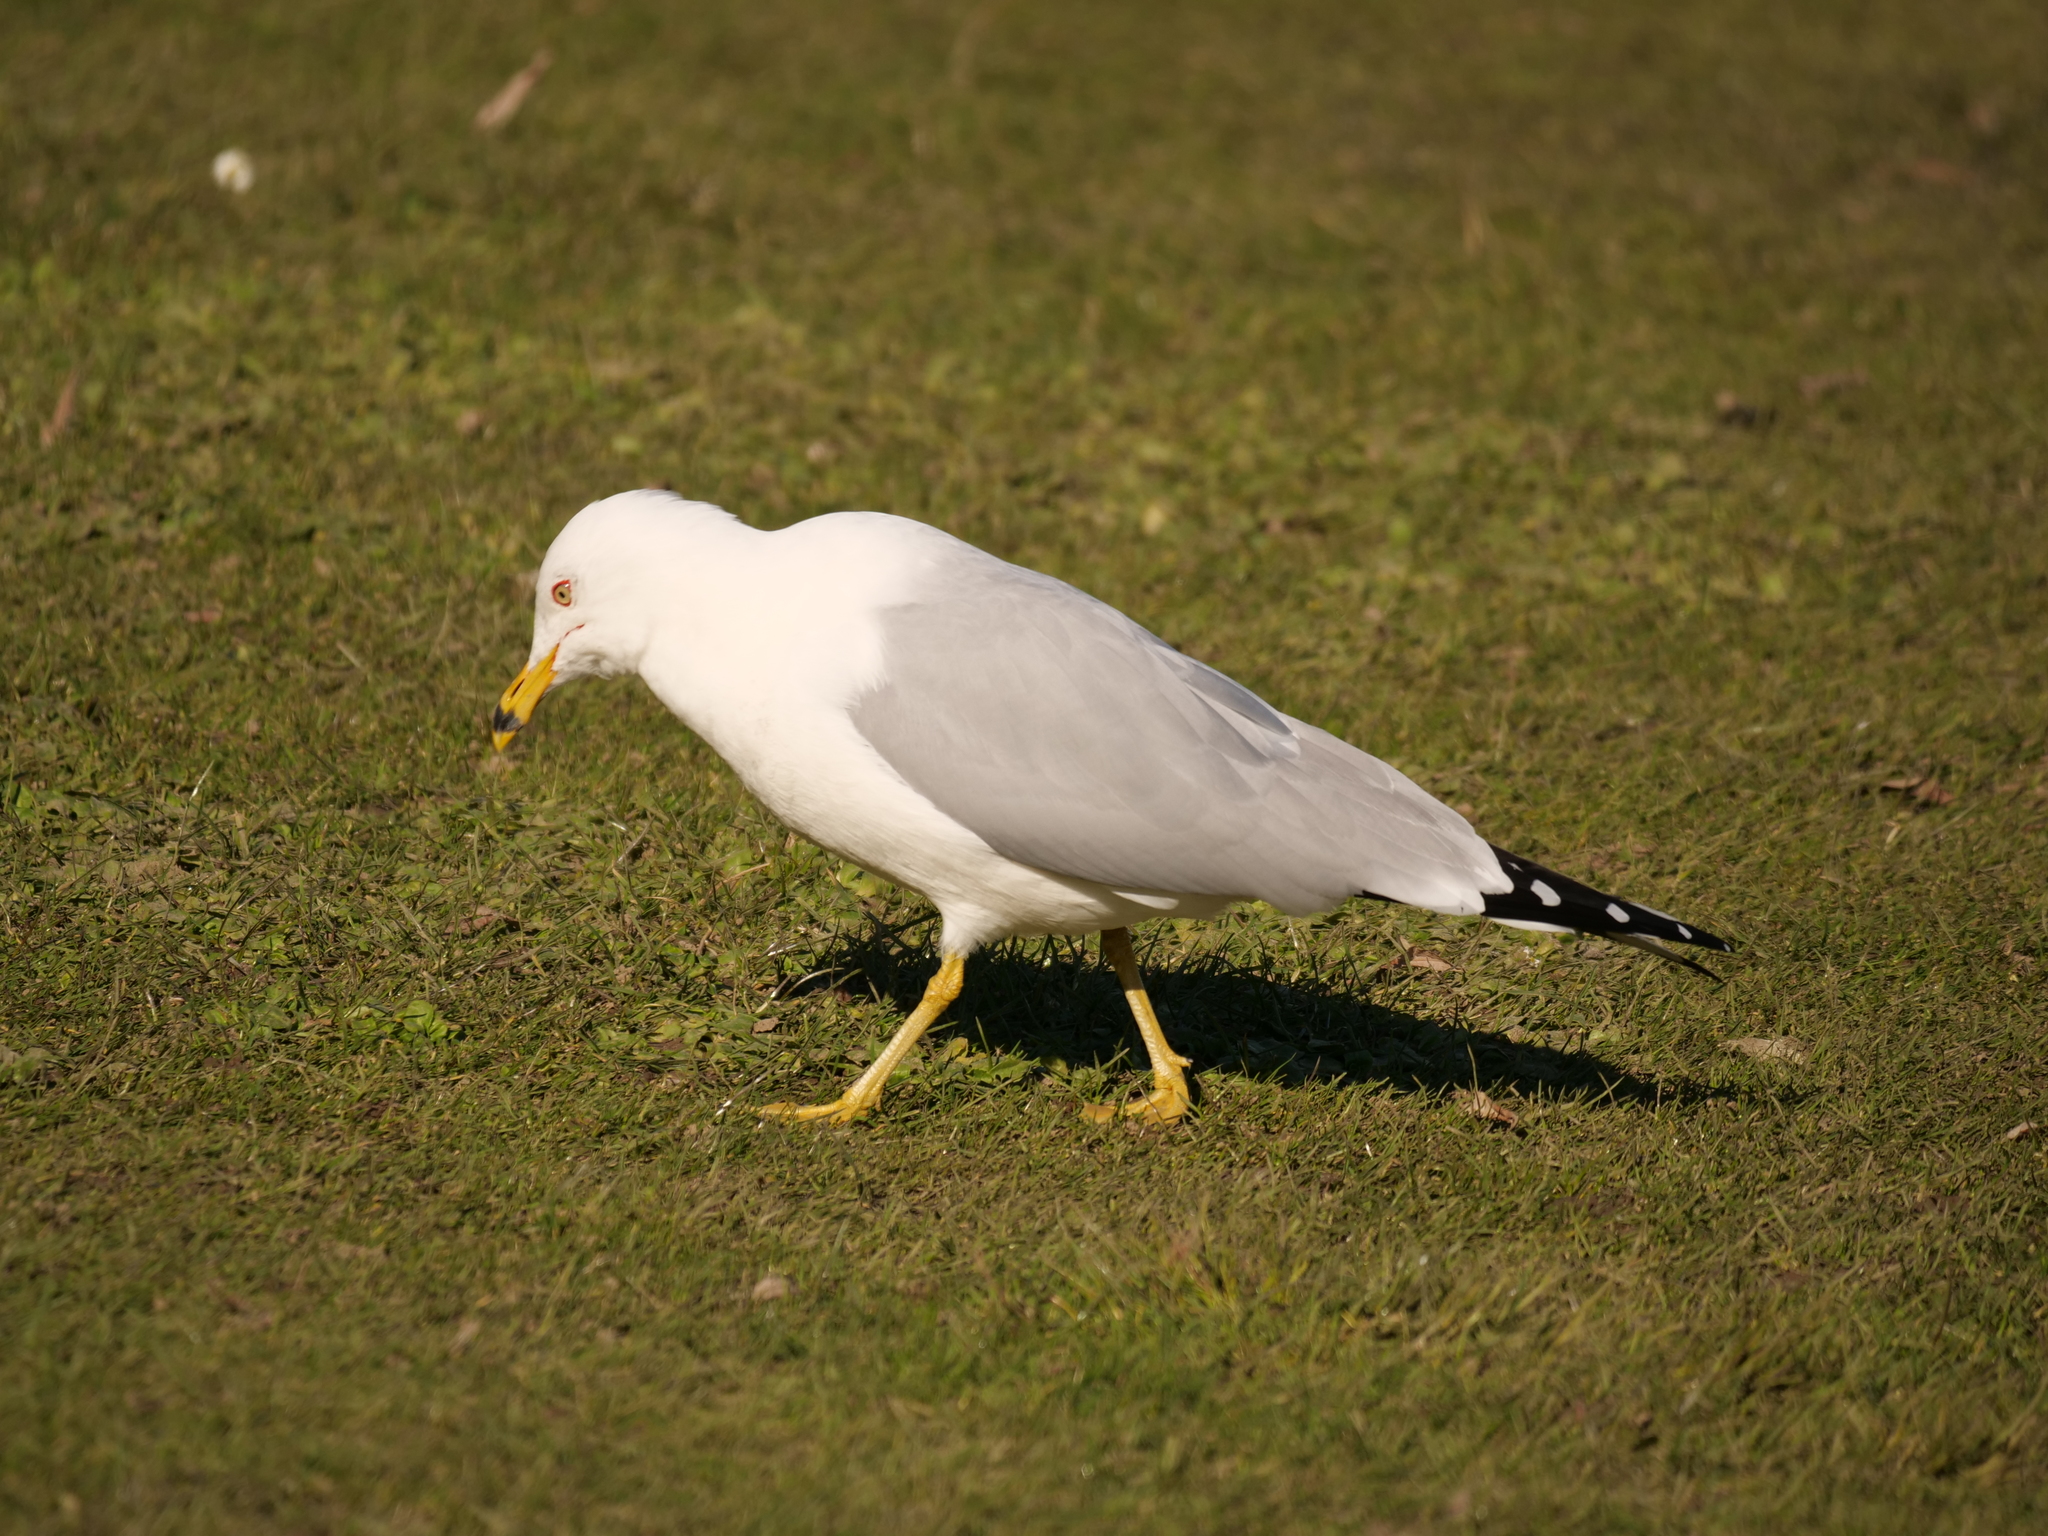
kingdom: Animalia
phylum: Chordata
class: Aves
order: Charadriiformes
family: Laridae
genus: Larus
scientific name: Larus delawarensis
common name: Ring-billed gull
